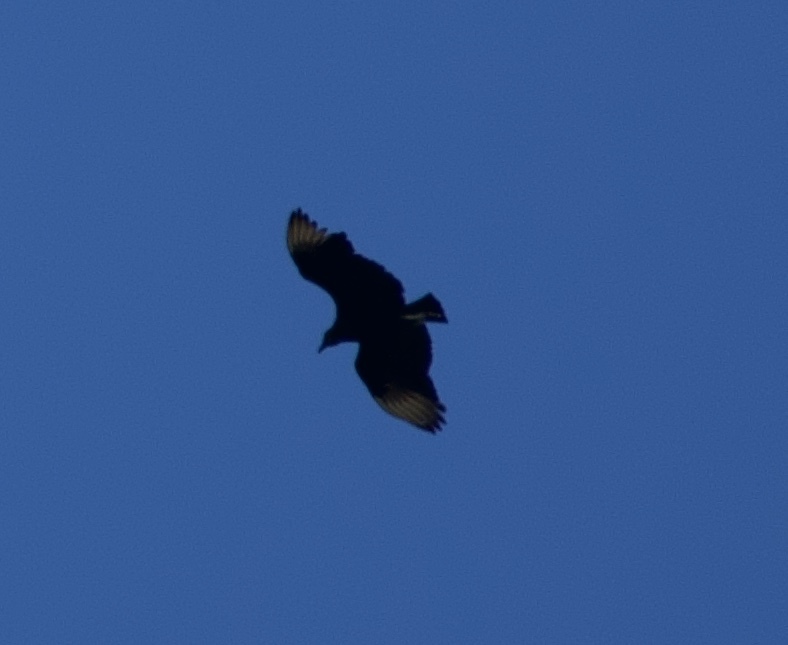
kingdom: Animalia
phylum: Chordata
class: Aves
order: Accipitriformes
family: Cathartidae
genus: Coragyps
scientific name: Coragyps atratus
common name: Black vulture
